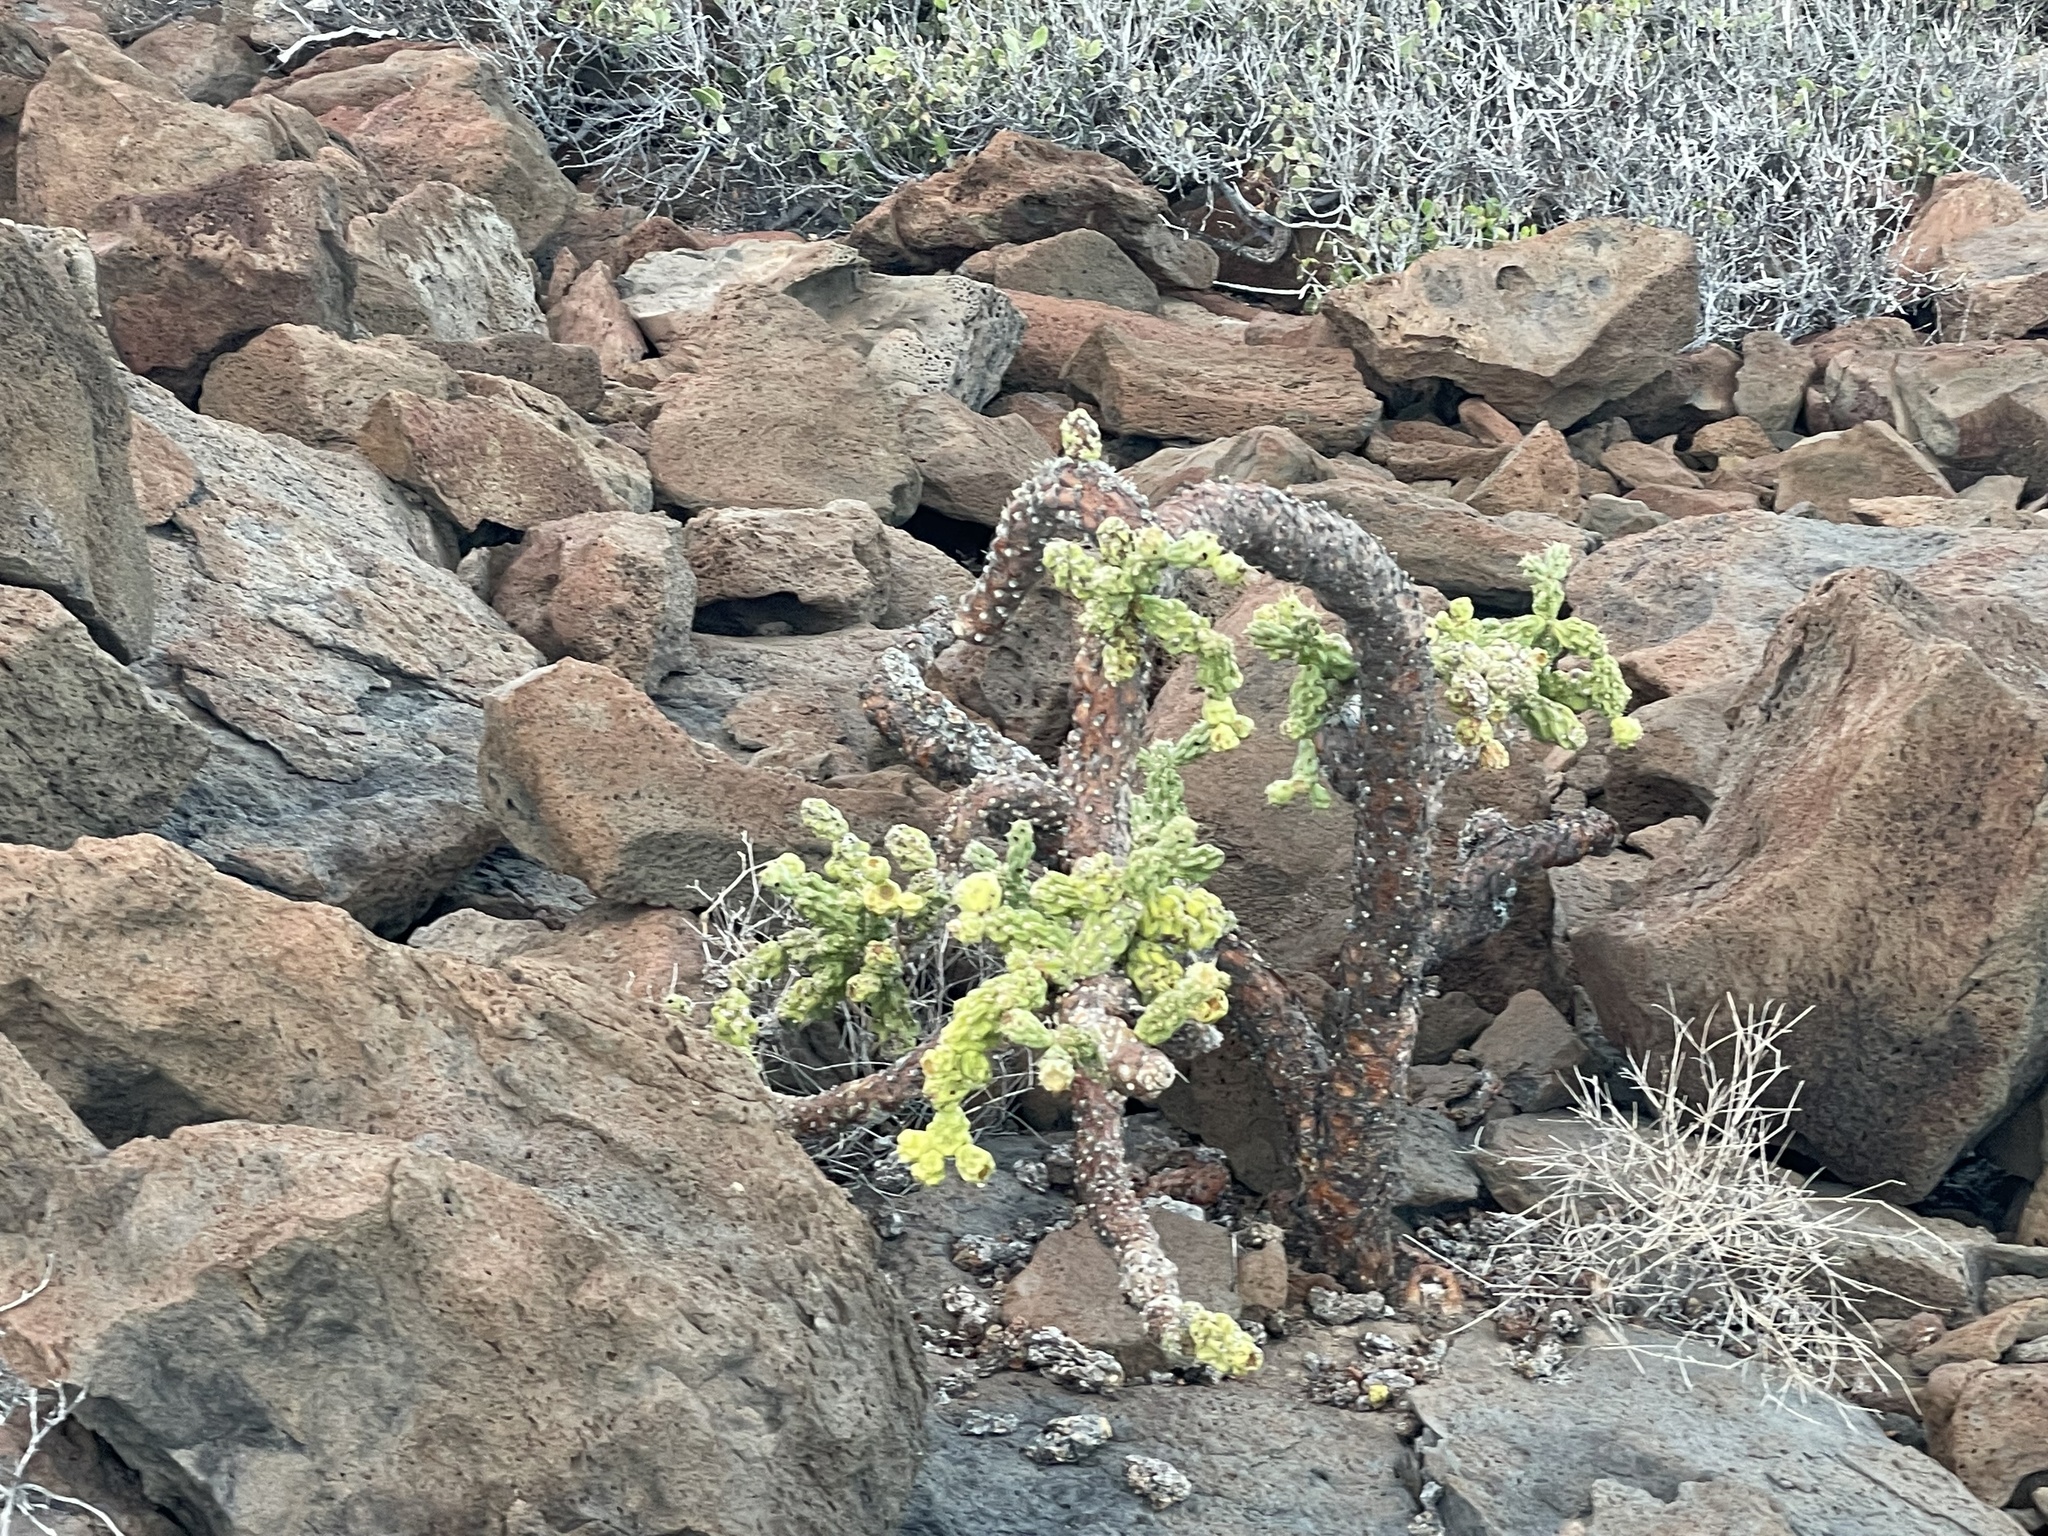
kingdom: Plantae
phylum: Tracheophyta
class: Magnoliopsida
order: Caryophyllales
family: Cactaceae
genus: Cylindropuntia
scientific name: Cylindropuntia cholla
